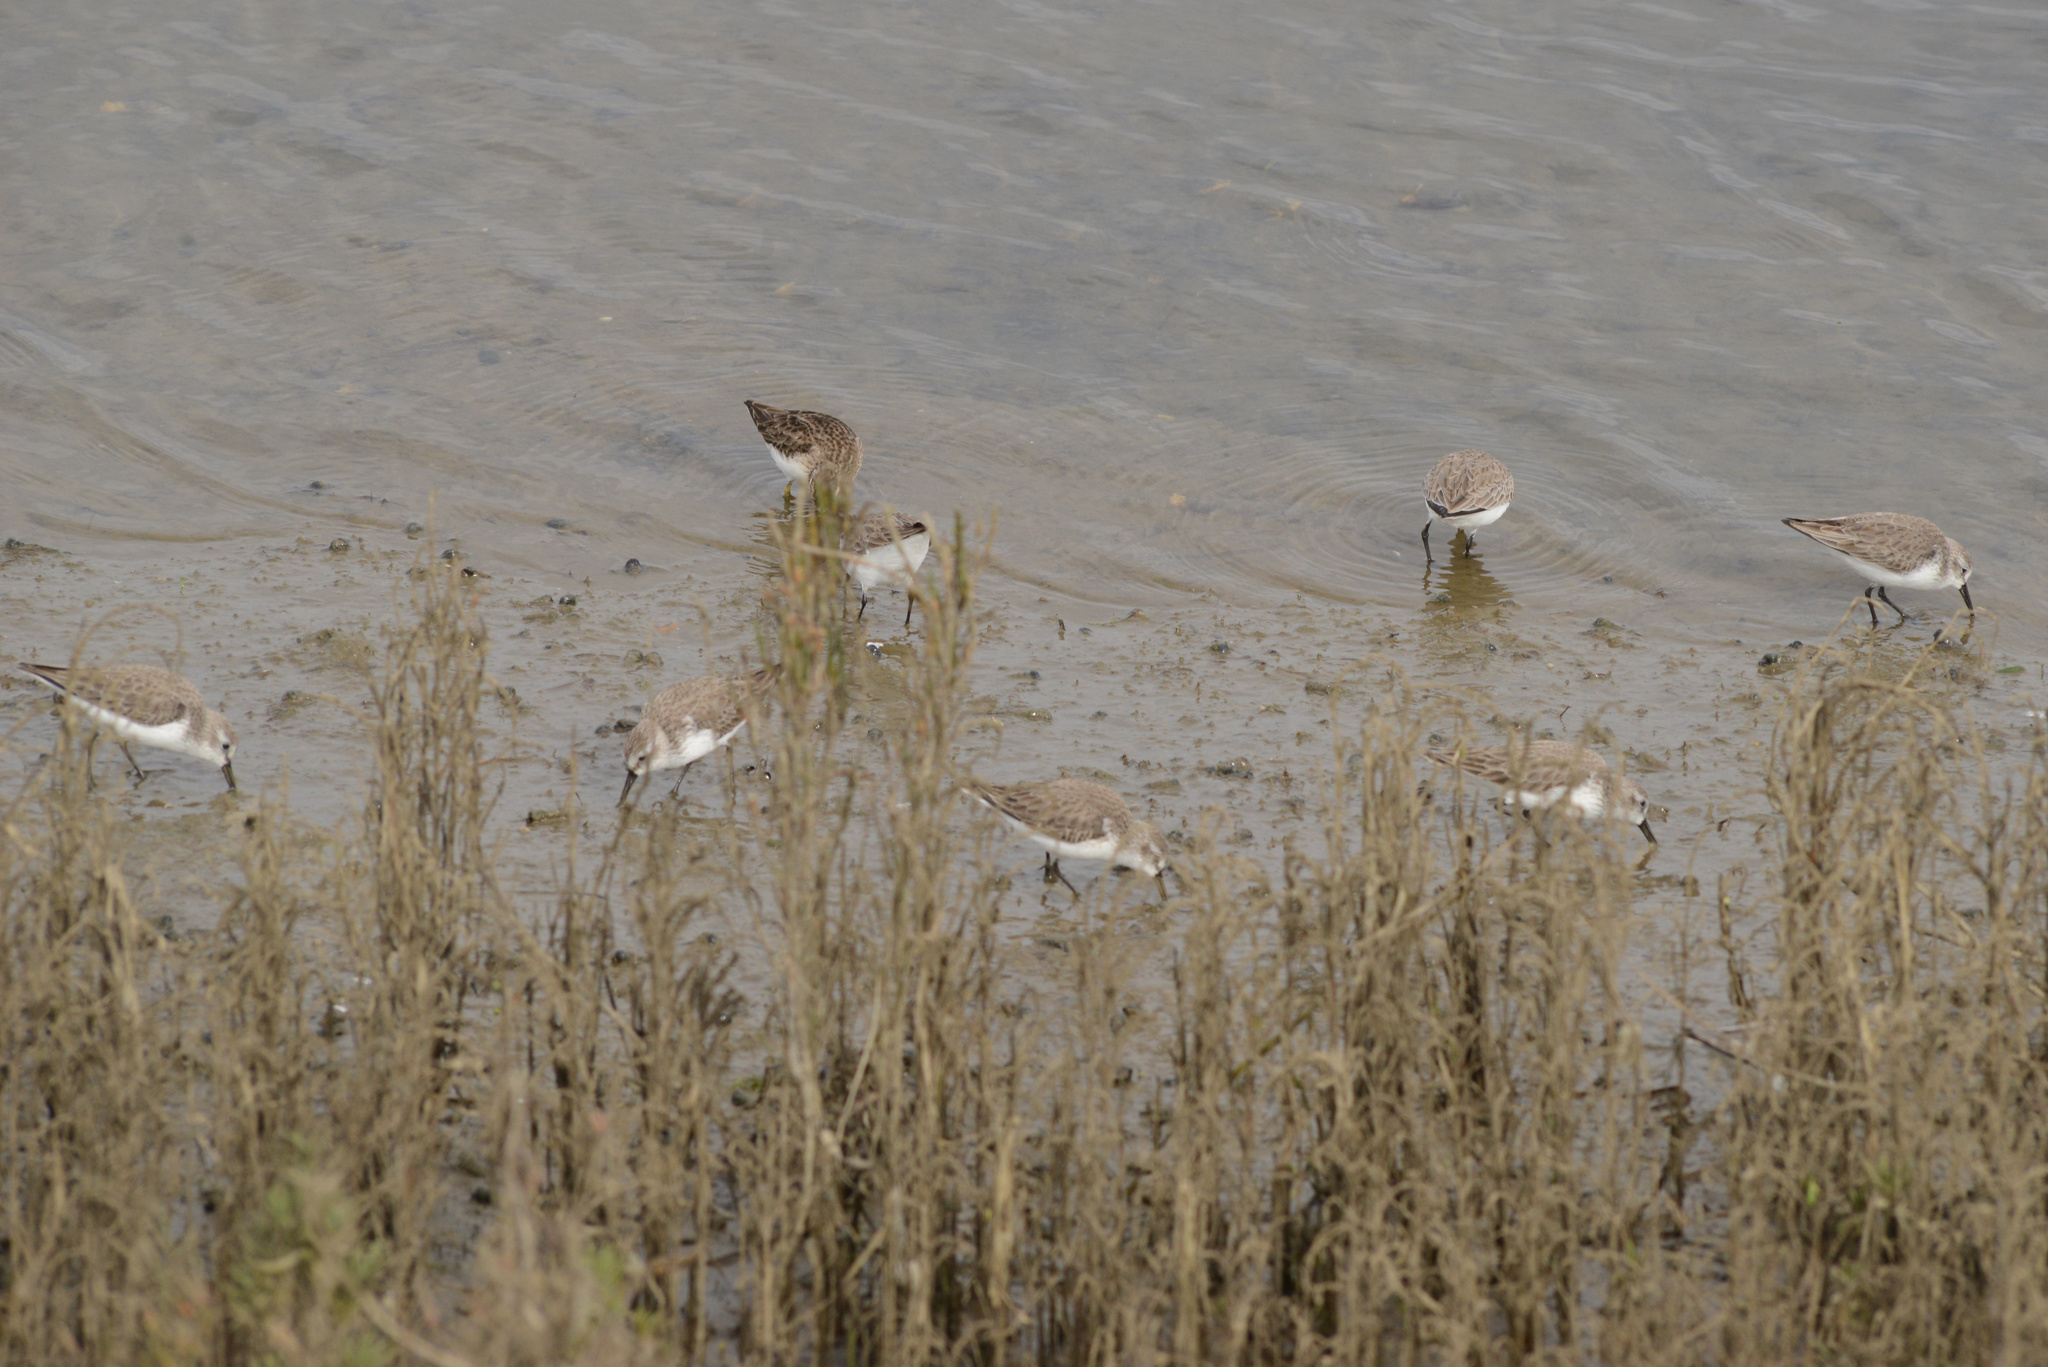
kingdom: Animalia
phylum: Chordata
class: Aves
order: Charadriiformes
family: Scolopacidae
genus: Calidris
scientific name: Calidris mauri
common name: Western sandpiper
